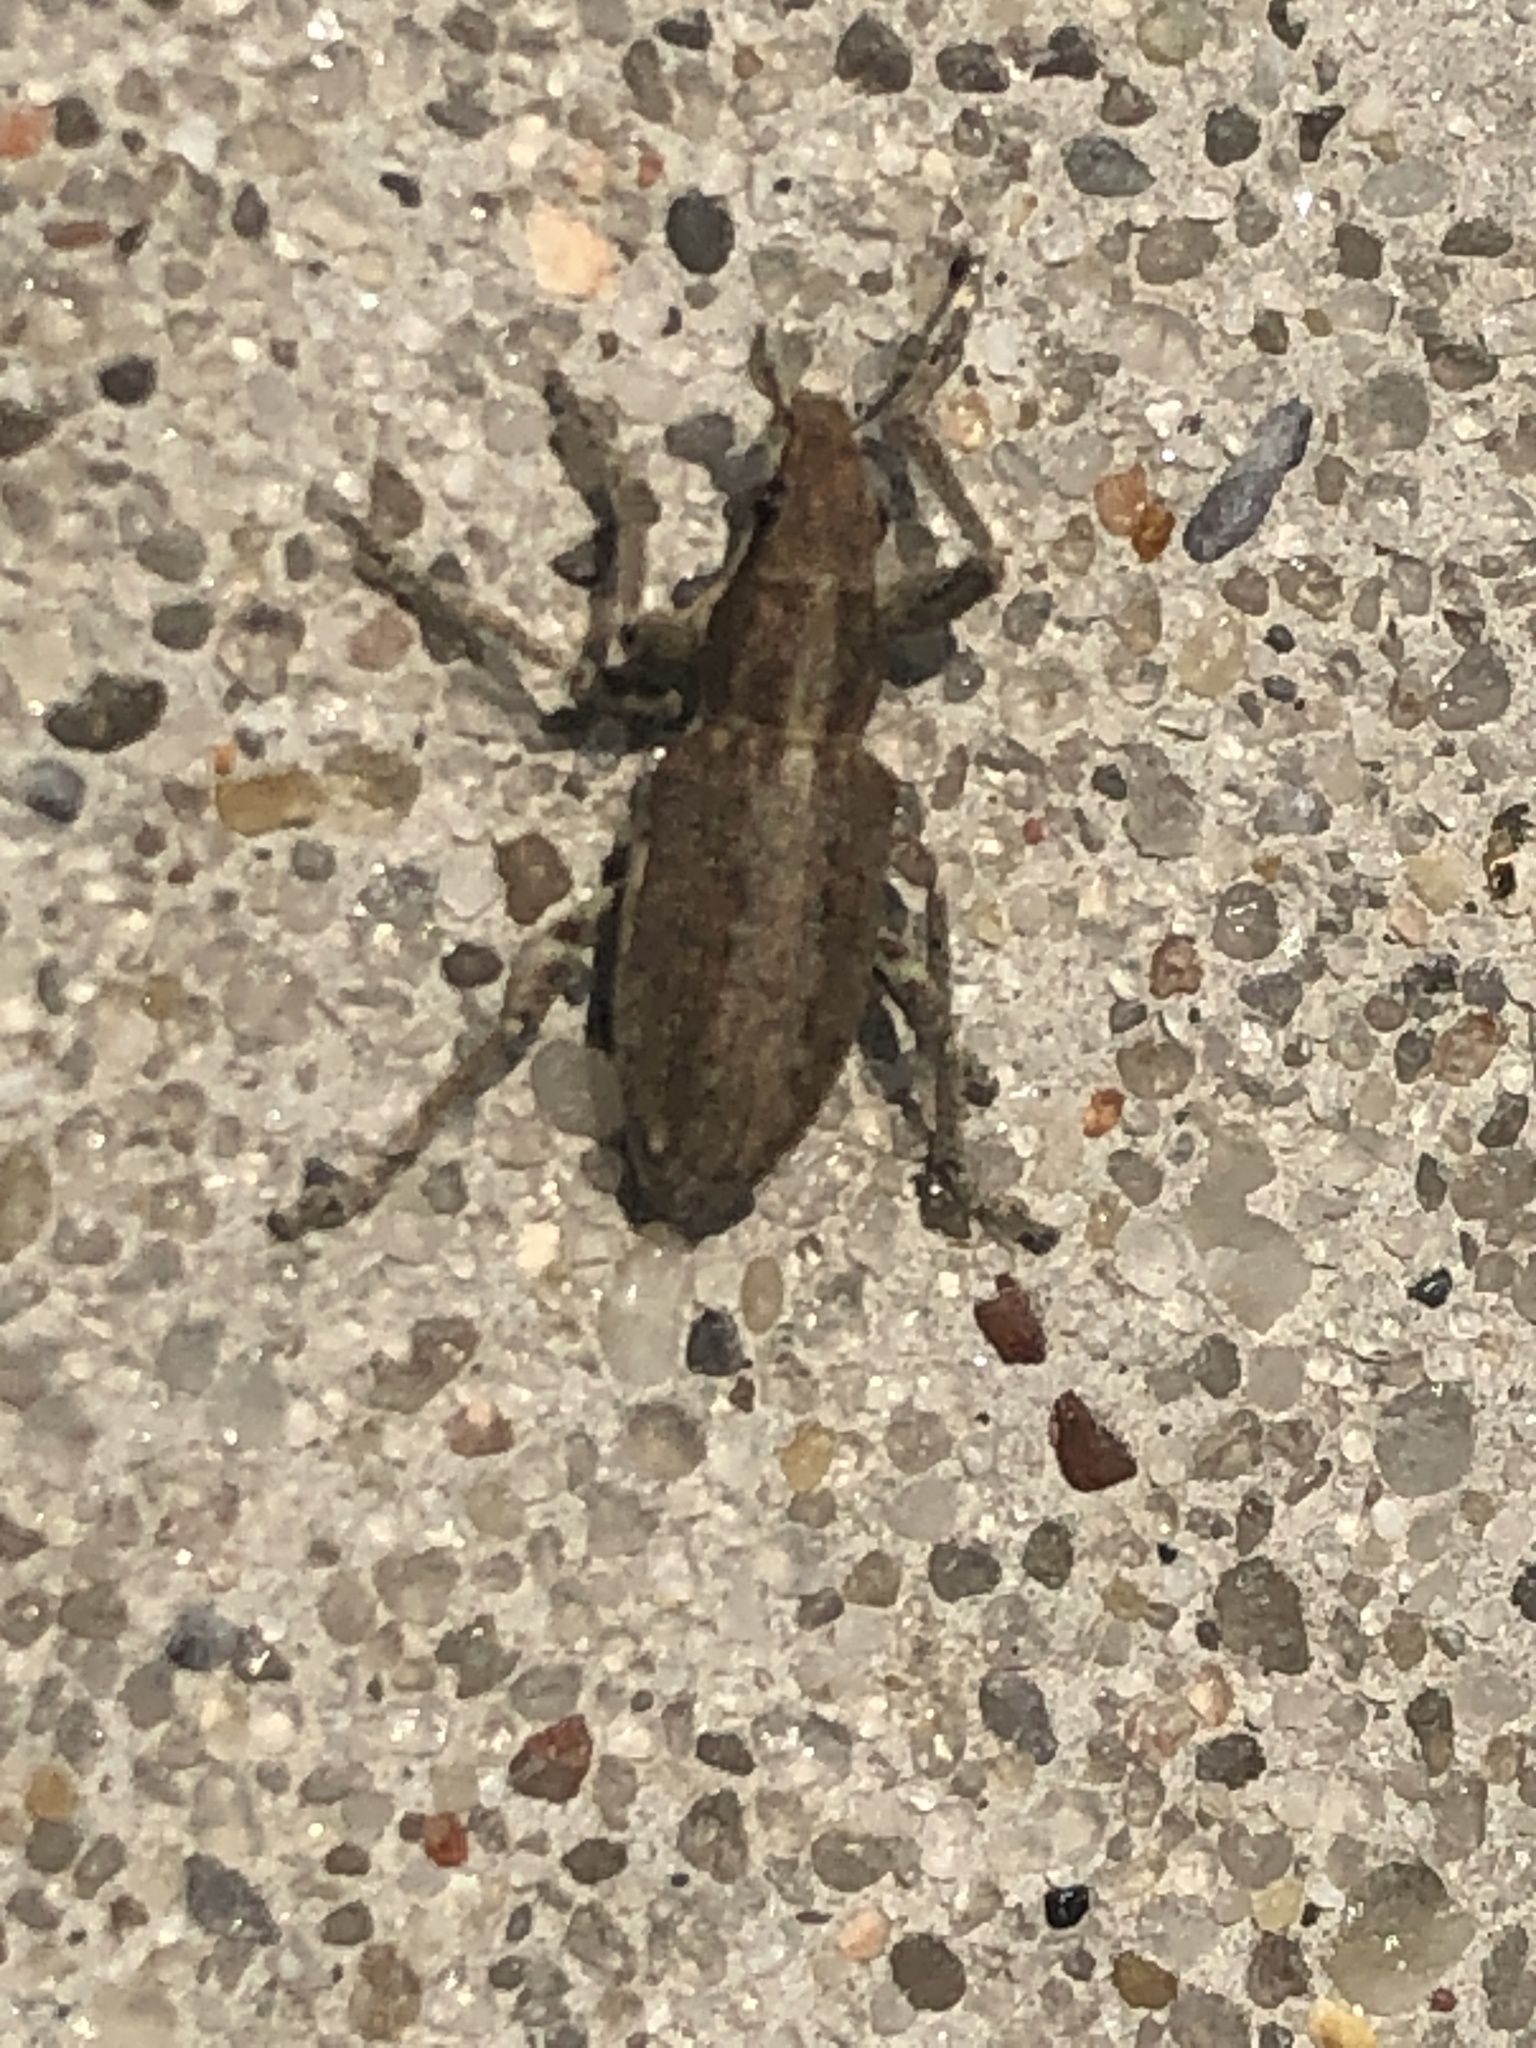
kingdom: Animalia
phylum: Arthropoda
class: Insecta
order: Coleoptera
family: Curculionidae
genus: Charagmus
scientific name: Charagmus griseus
